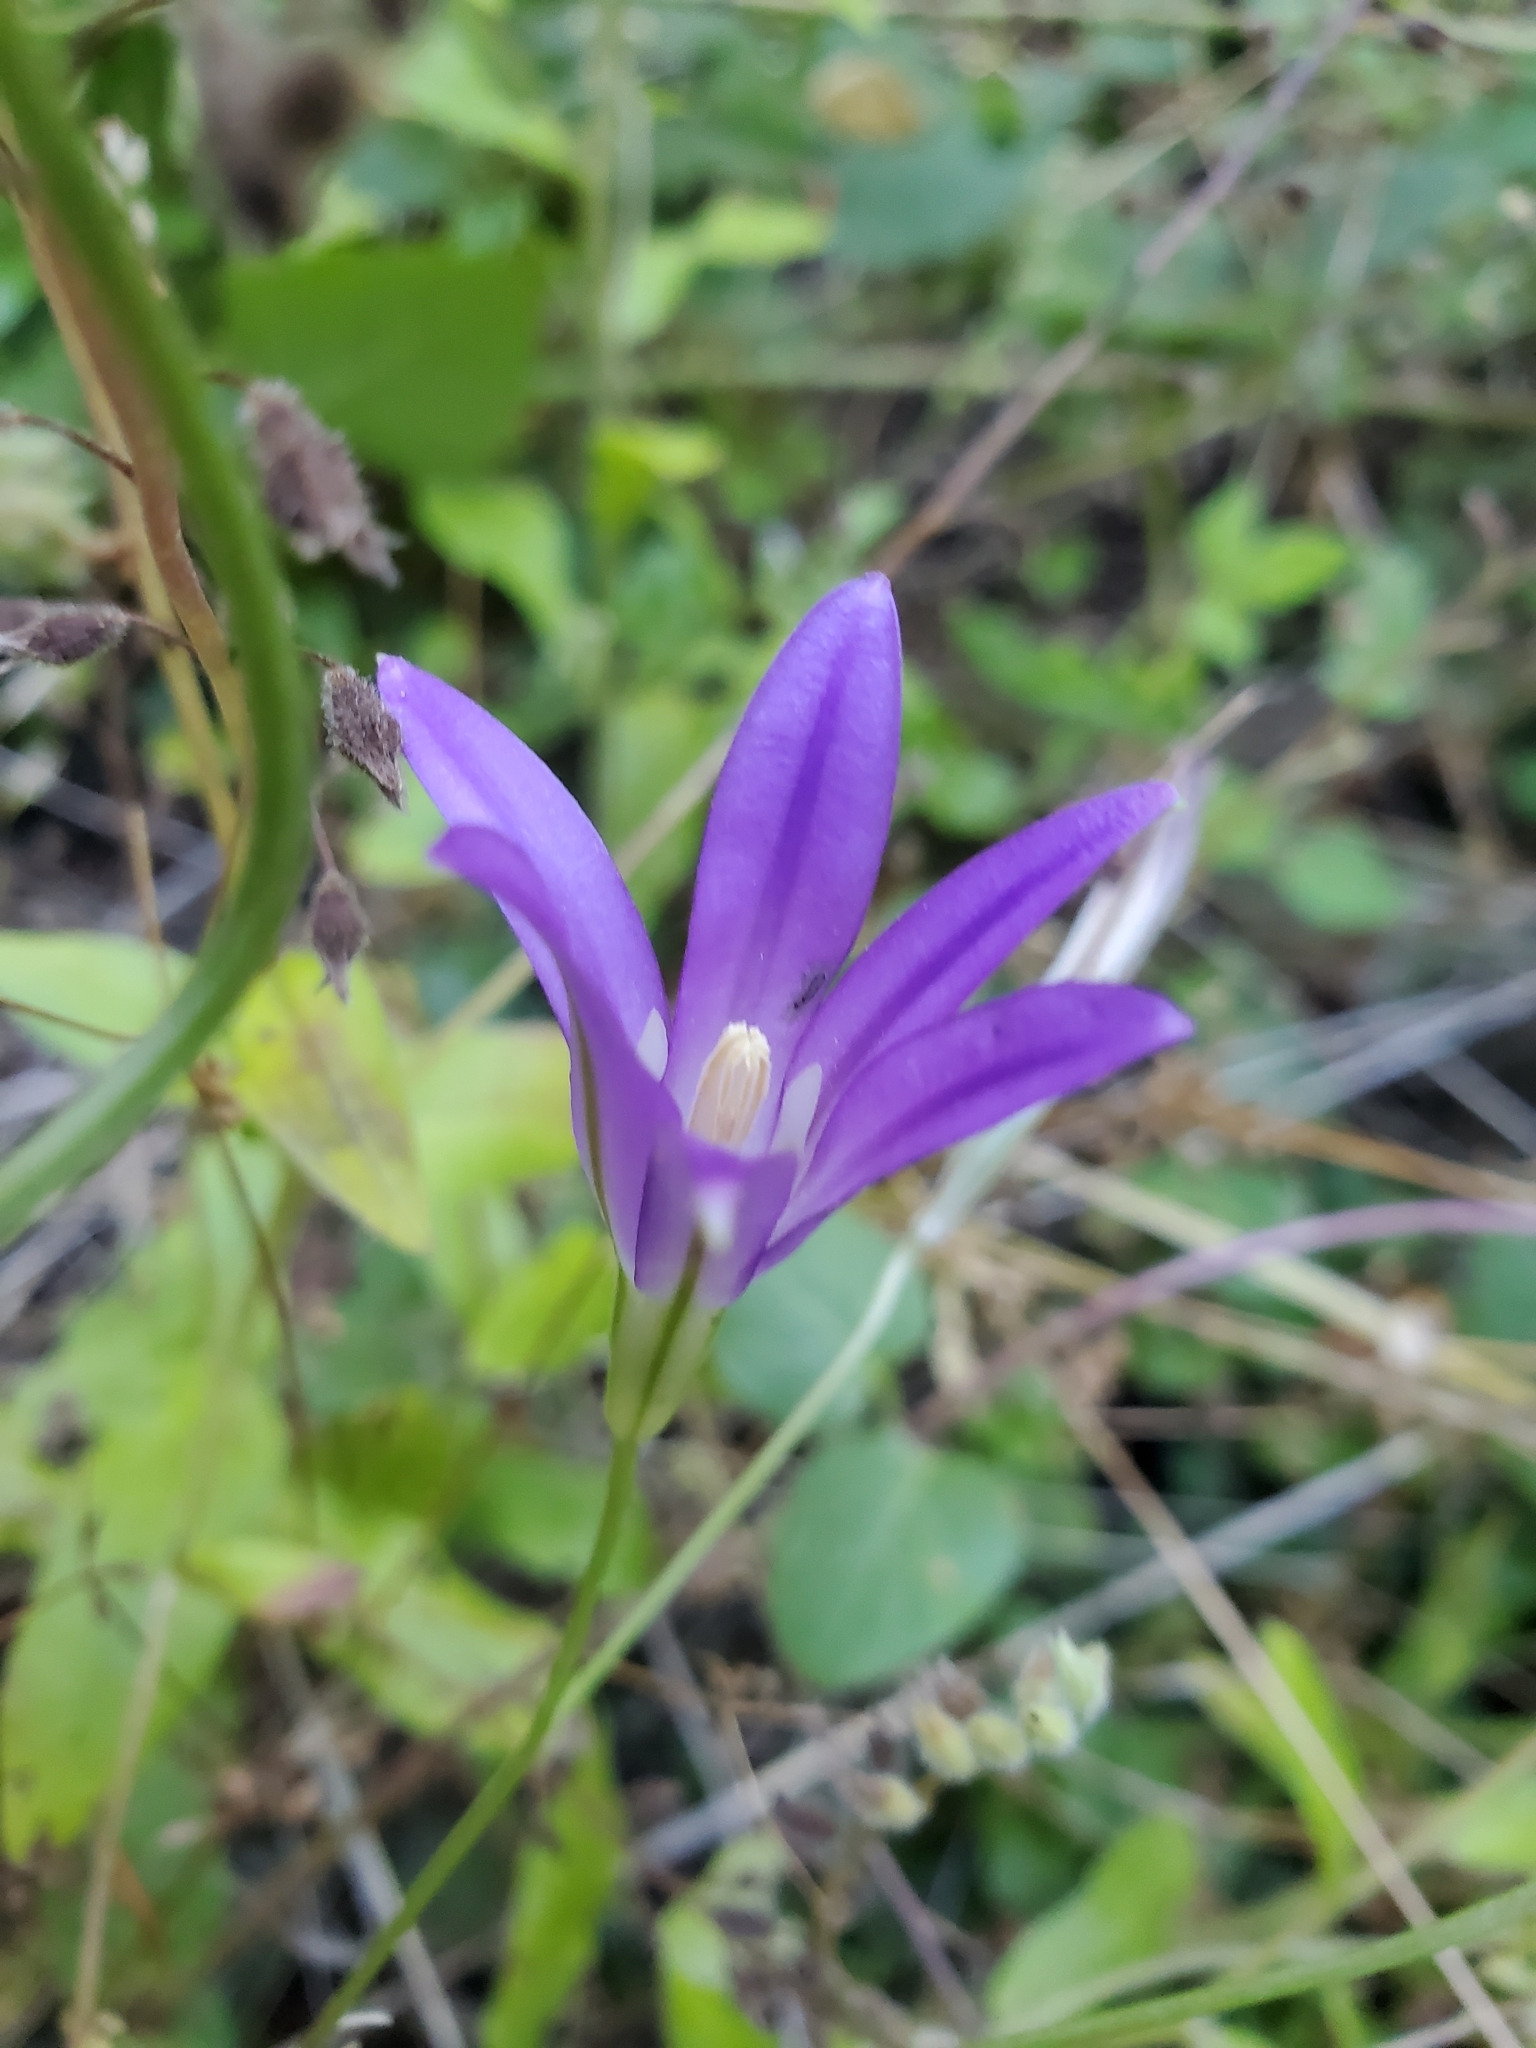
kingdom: Plantae
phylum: Tracheophyta
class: Liliopsida
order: Asparagales
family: Asparagaceae
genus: Brodiaea
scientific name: Brodiaea elegans
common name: Elegant cluster-lily
